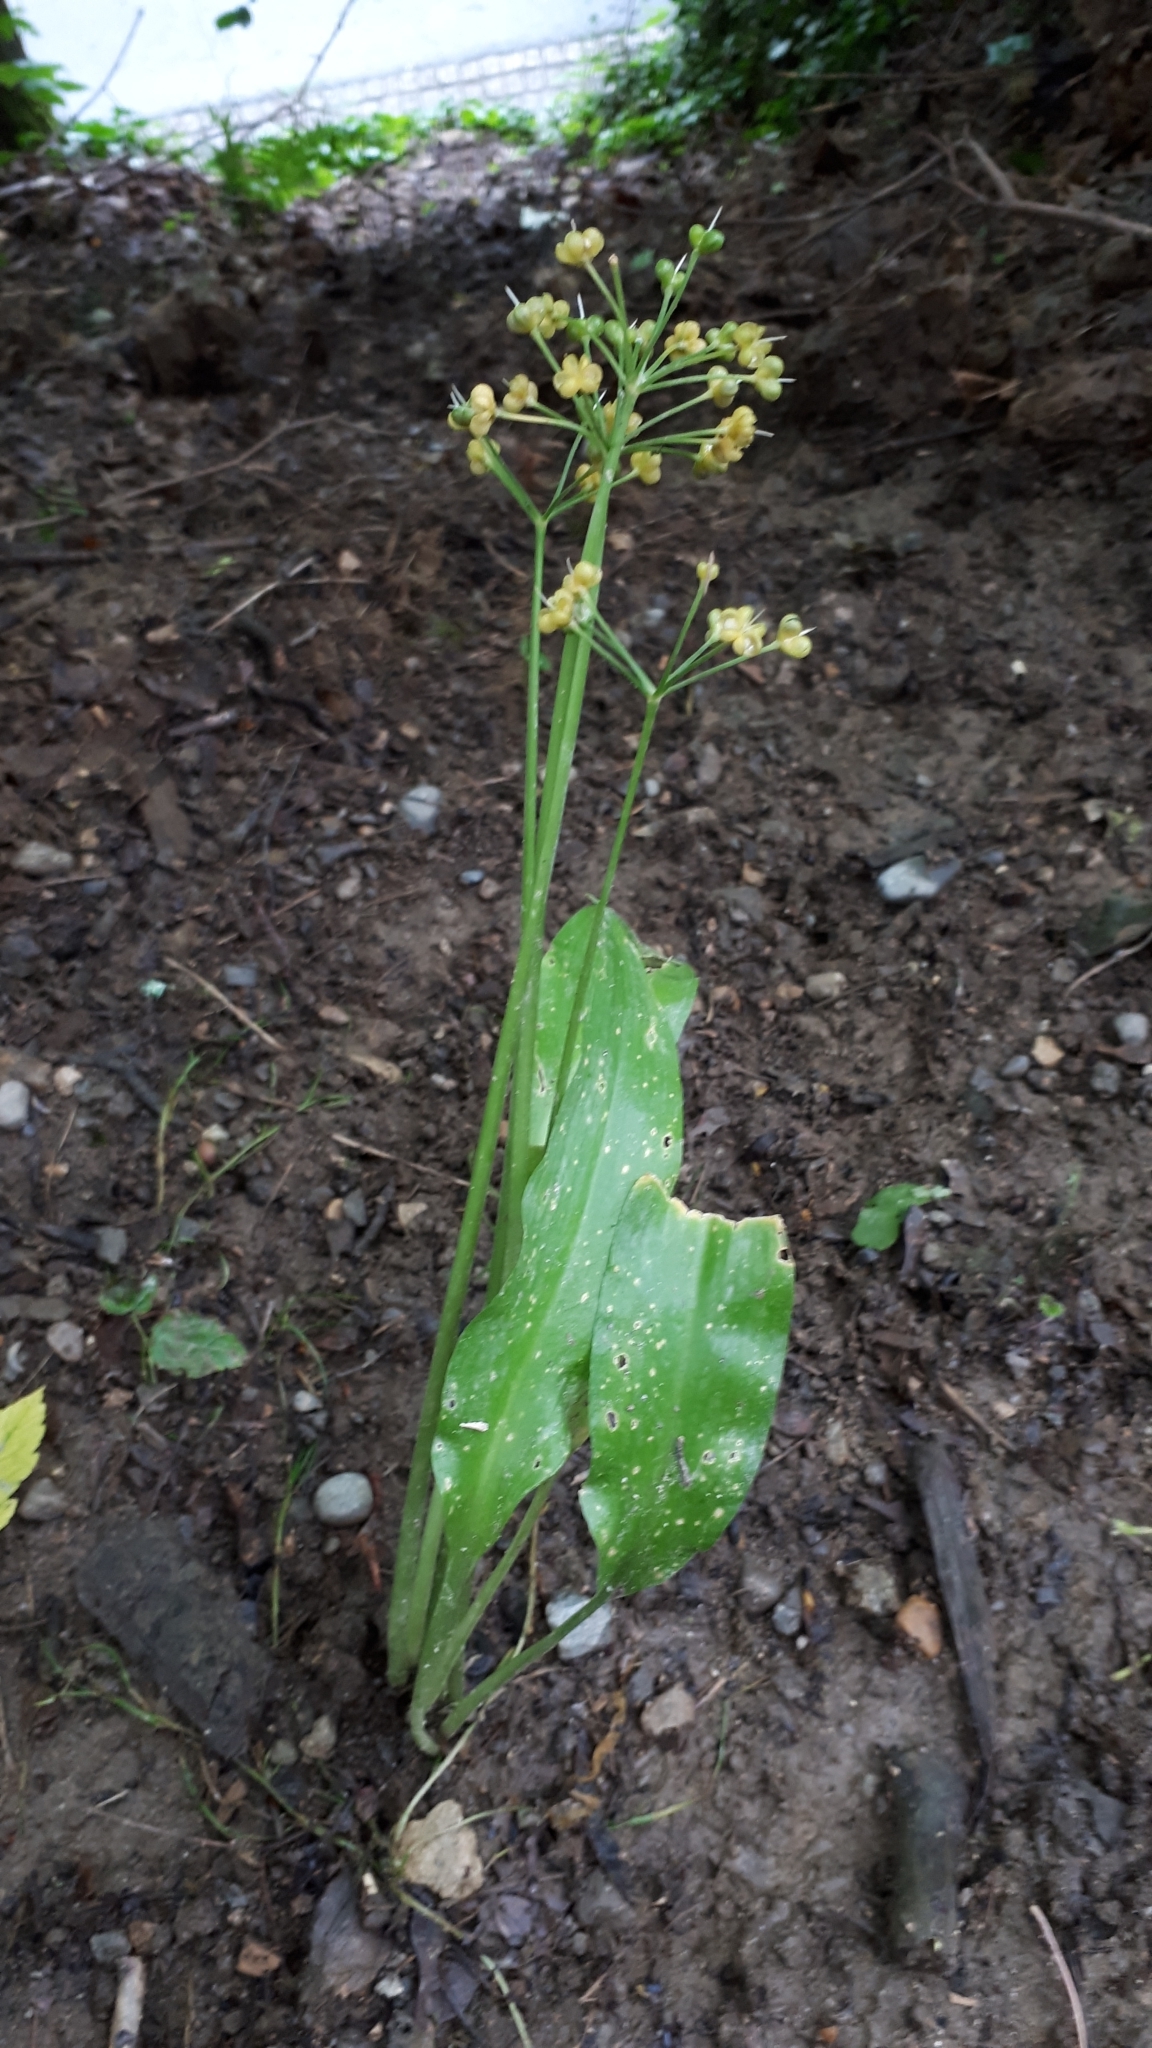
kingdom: Plantae
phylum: Tracheophyta
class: Liliopsida
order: Asparagales
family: Amaryllidaceae
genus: Allium
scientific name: Allium ursinum
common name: Ramsons
